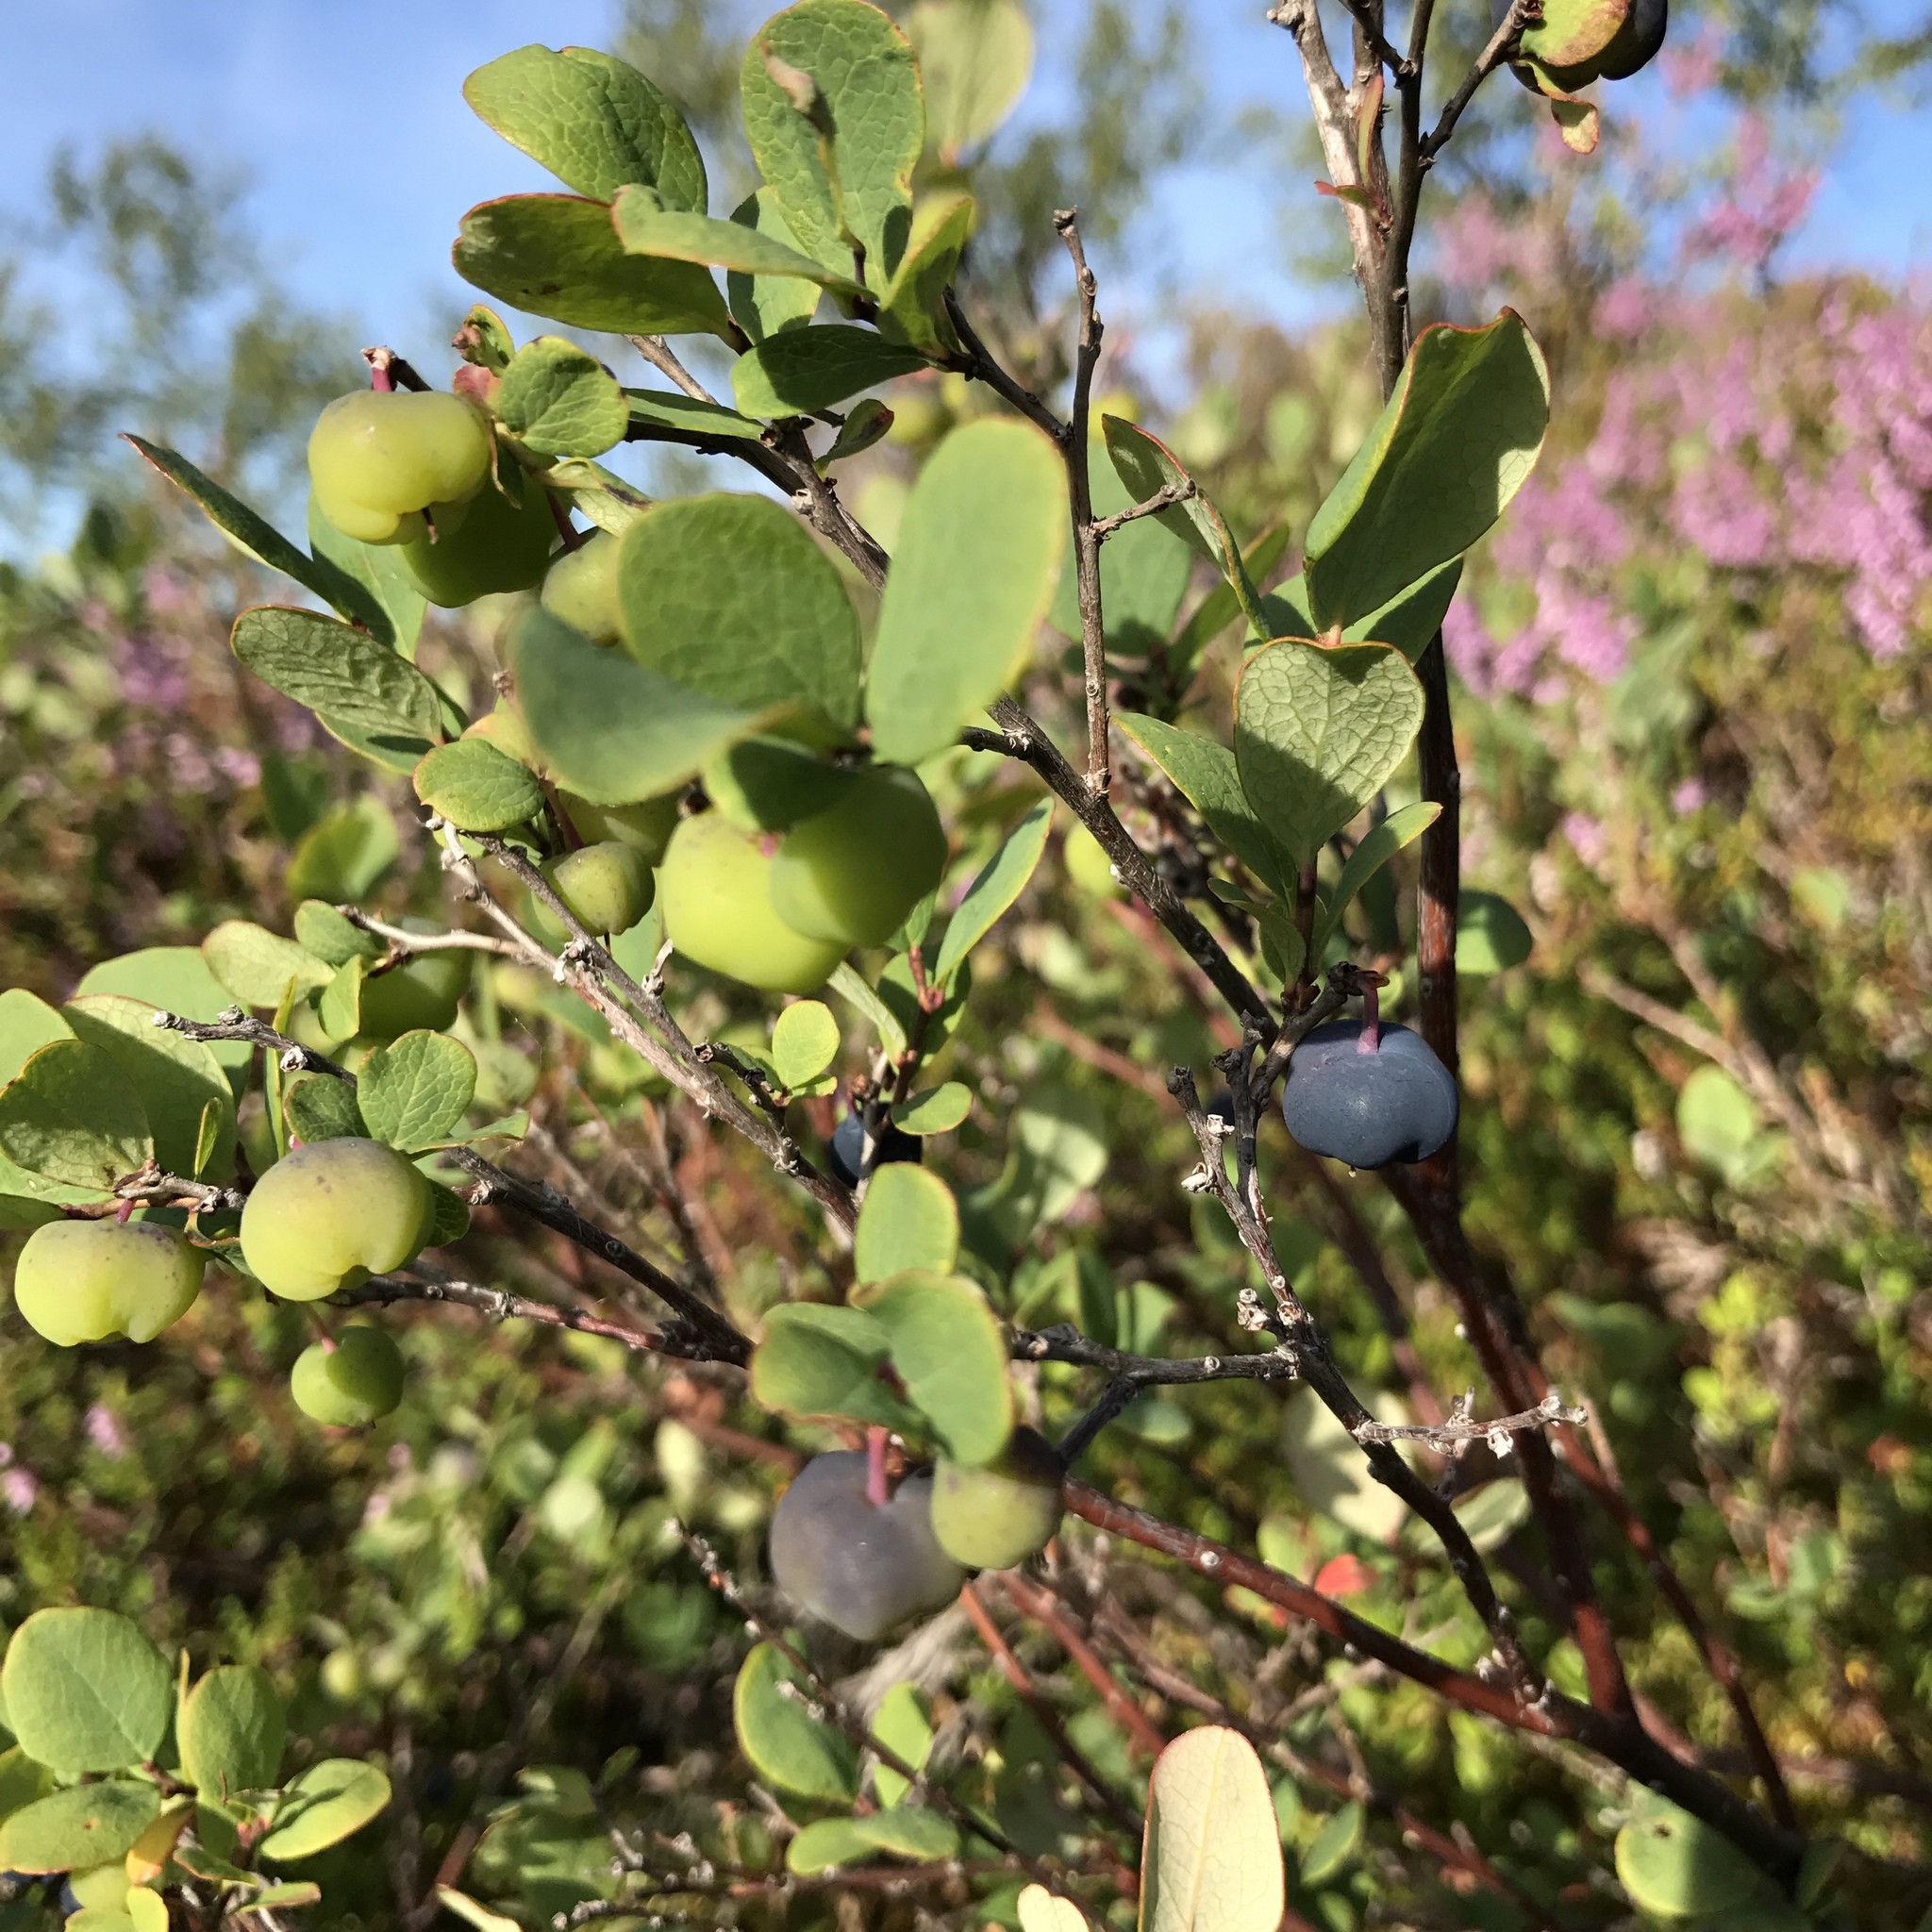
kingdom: Plantae
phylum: Tracheophyta
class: Magnoliopsida
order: Ericales
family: Ericaceae
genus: Vaccinium
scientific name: Vaccinium uliginosum
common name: Bog bilberry
